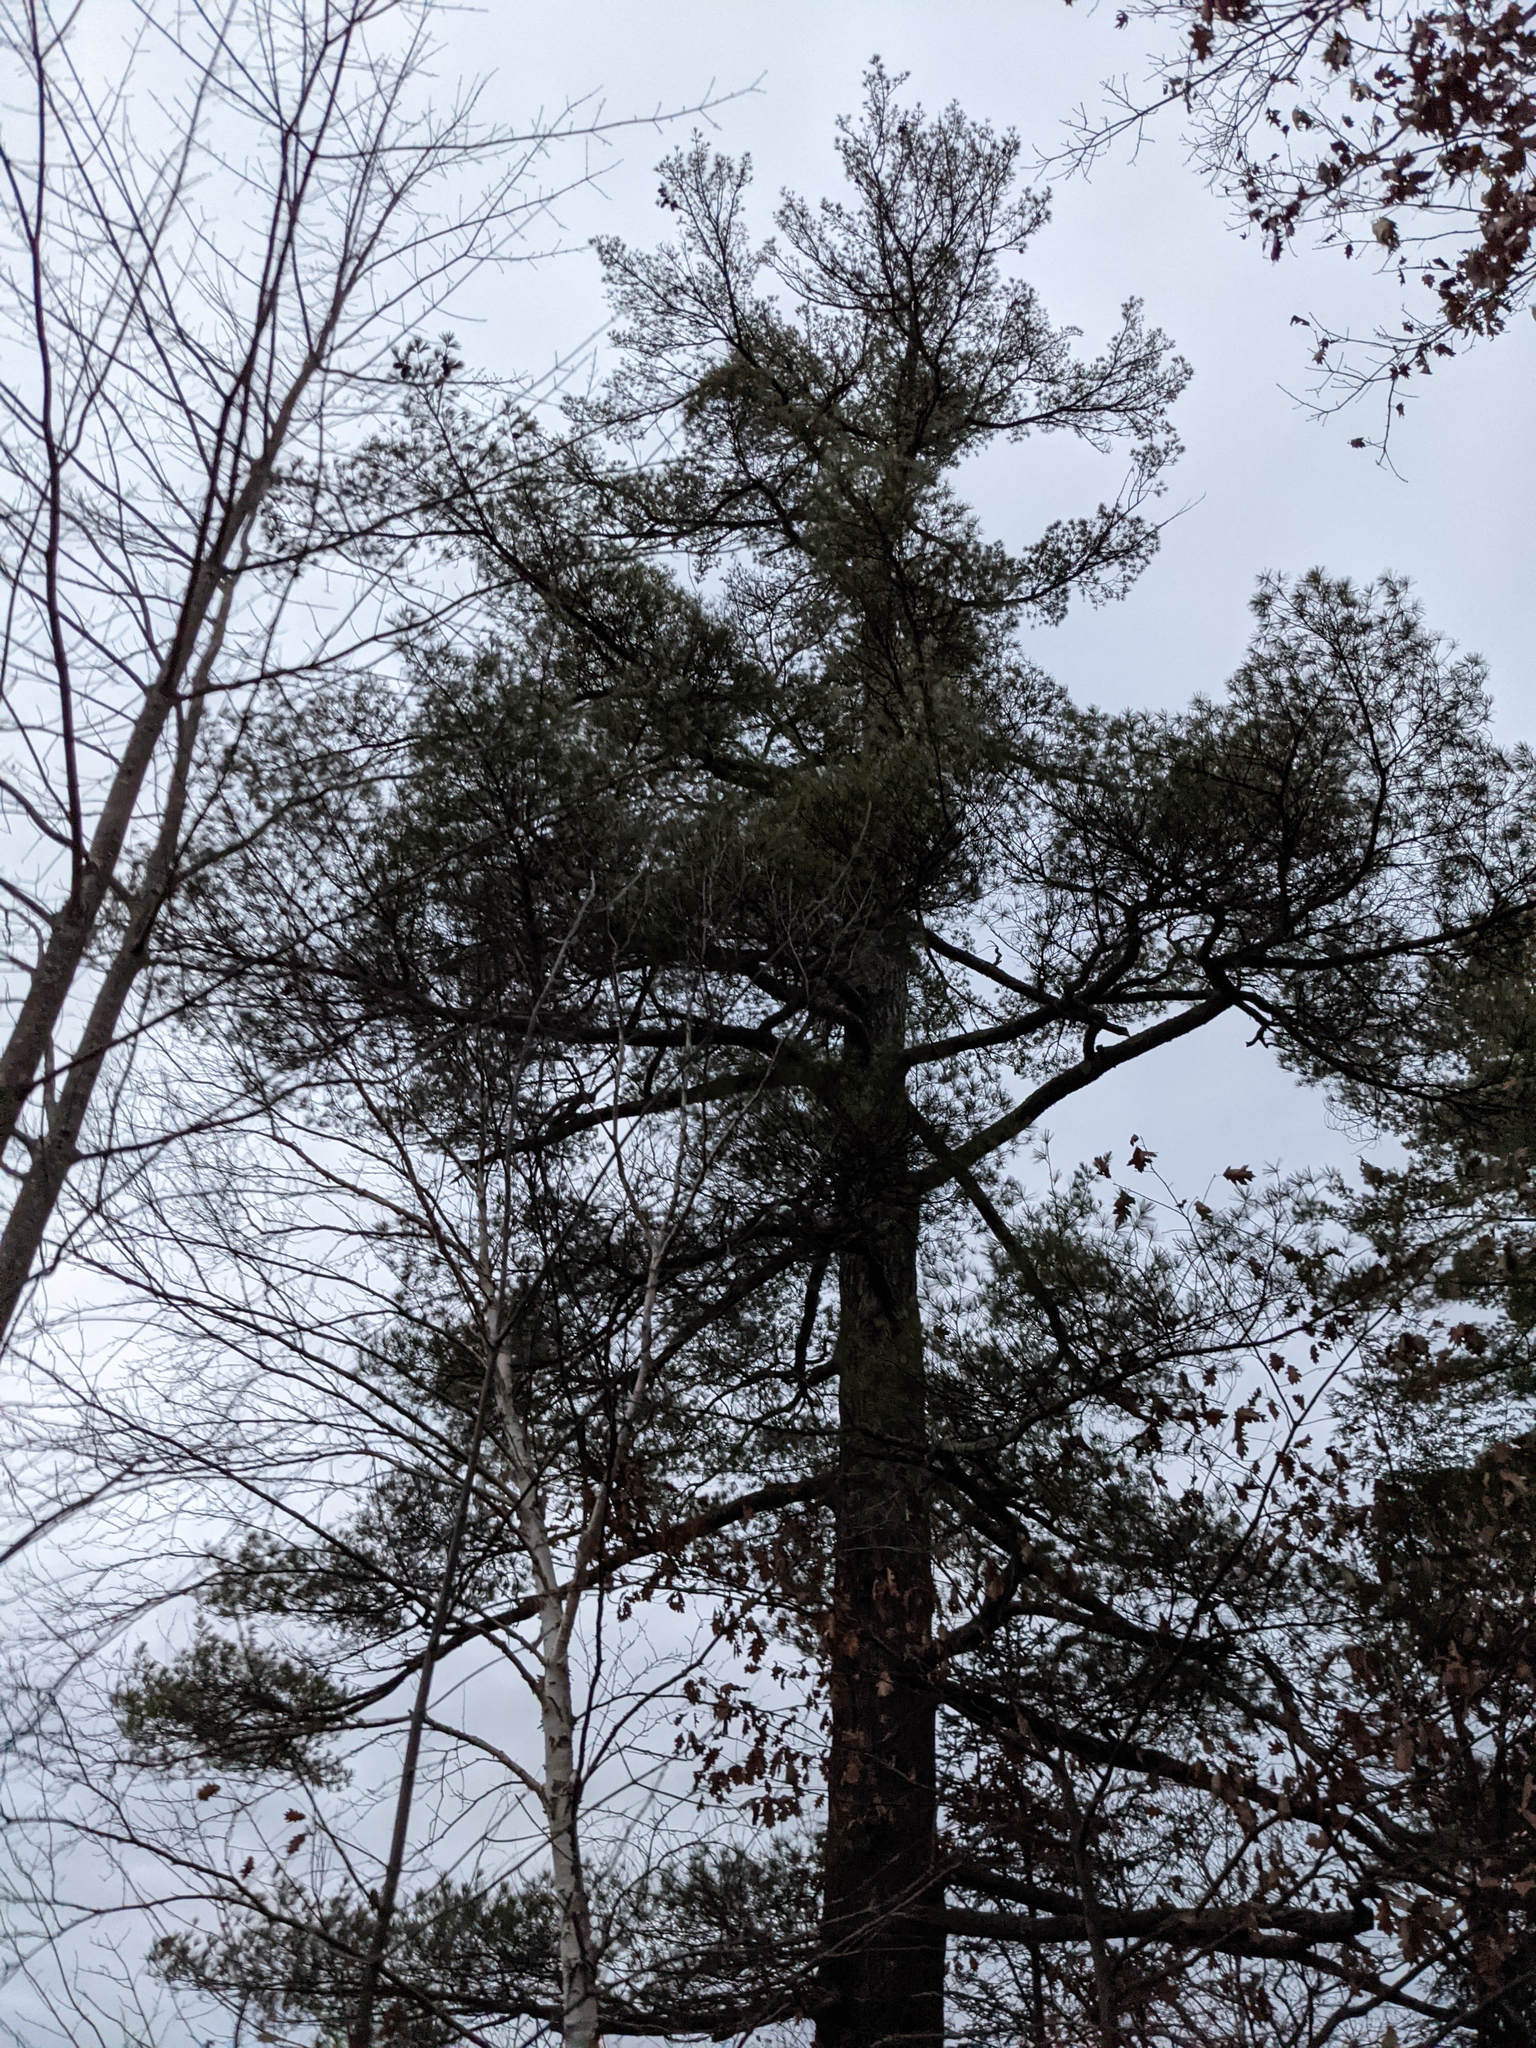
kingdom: Plantae
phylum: Tracheophyta
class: Pinopsida
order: Pinales
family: Pinaceae
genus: Pinus
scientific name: Pinus strobus
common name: Weymouth pine
